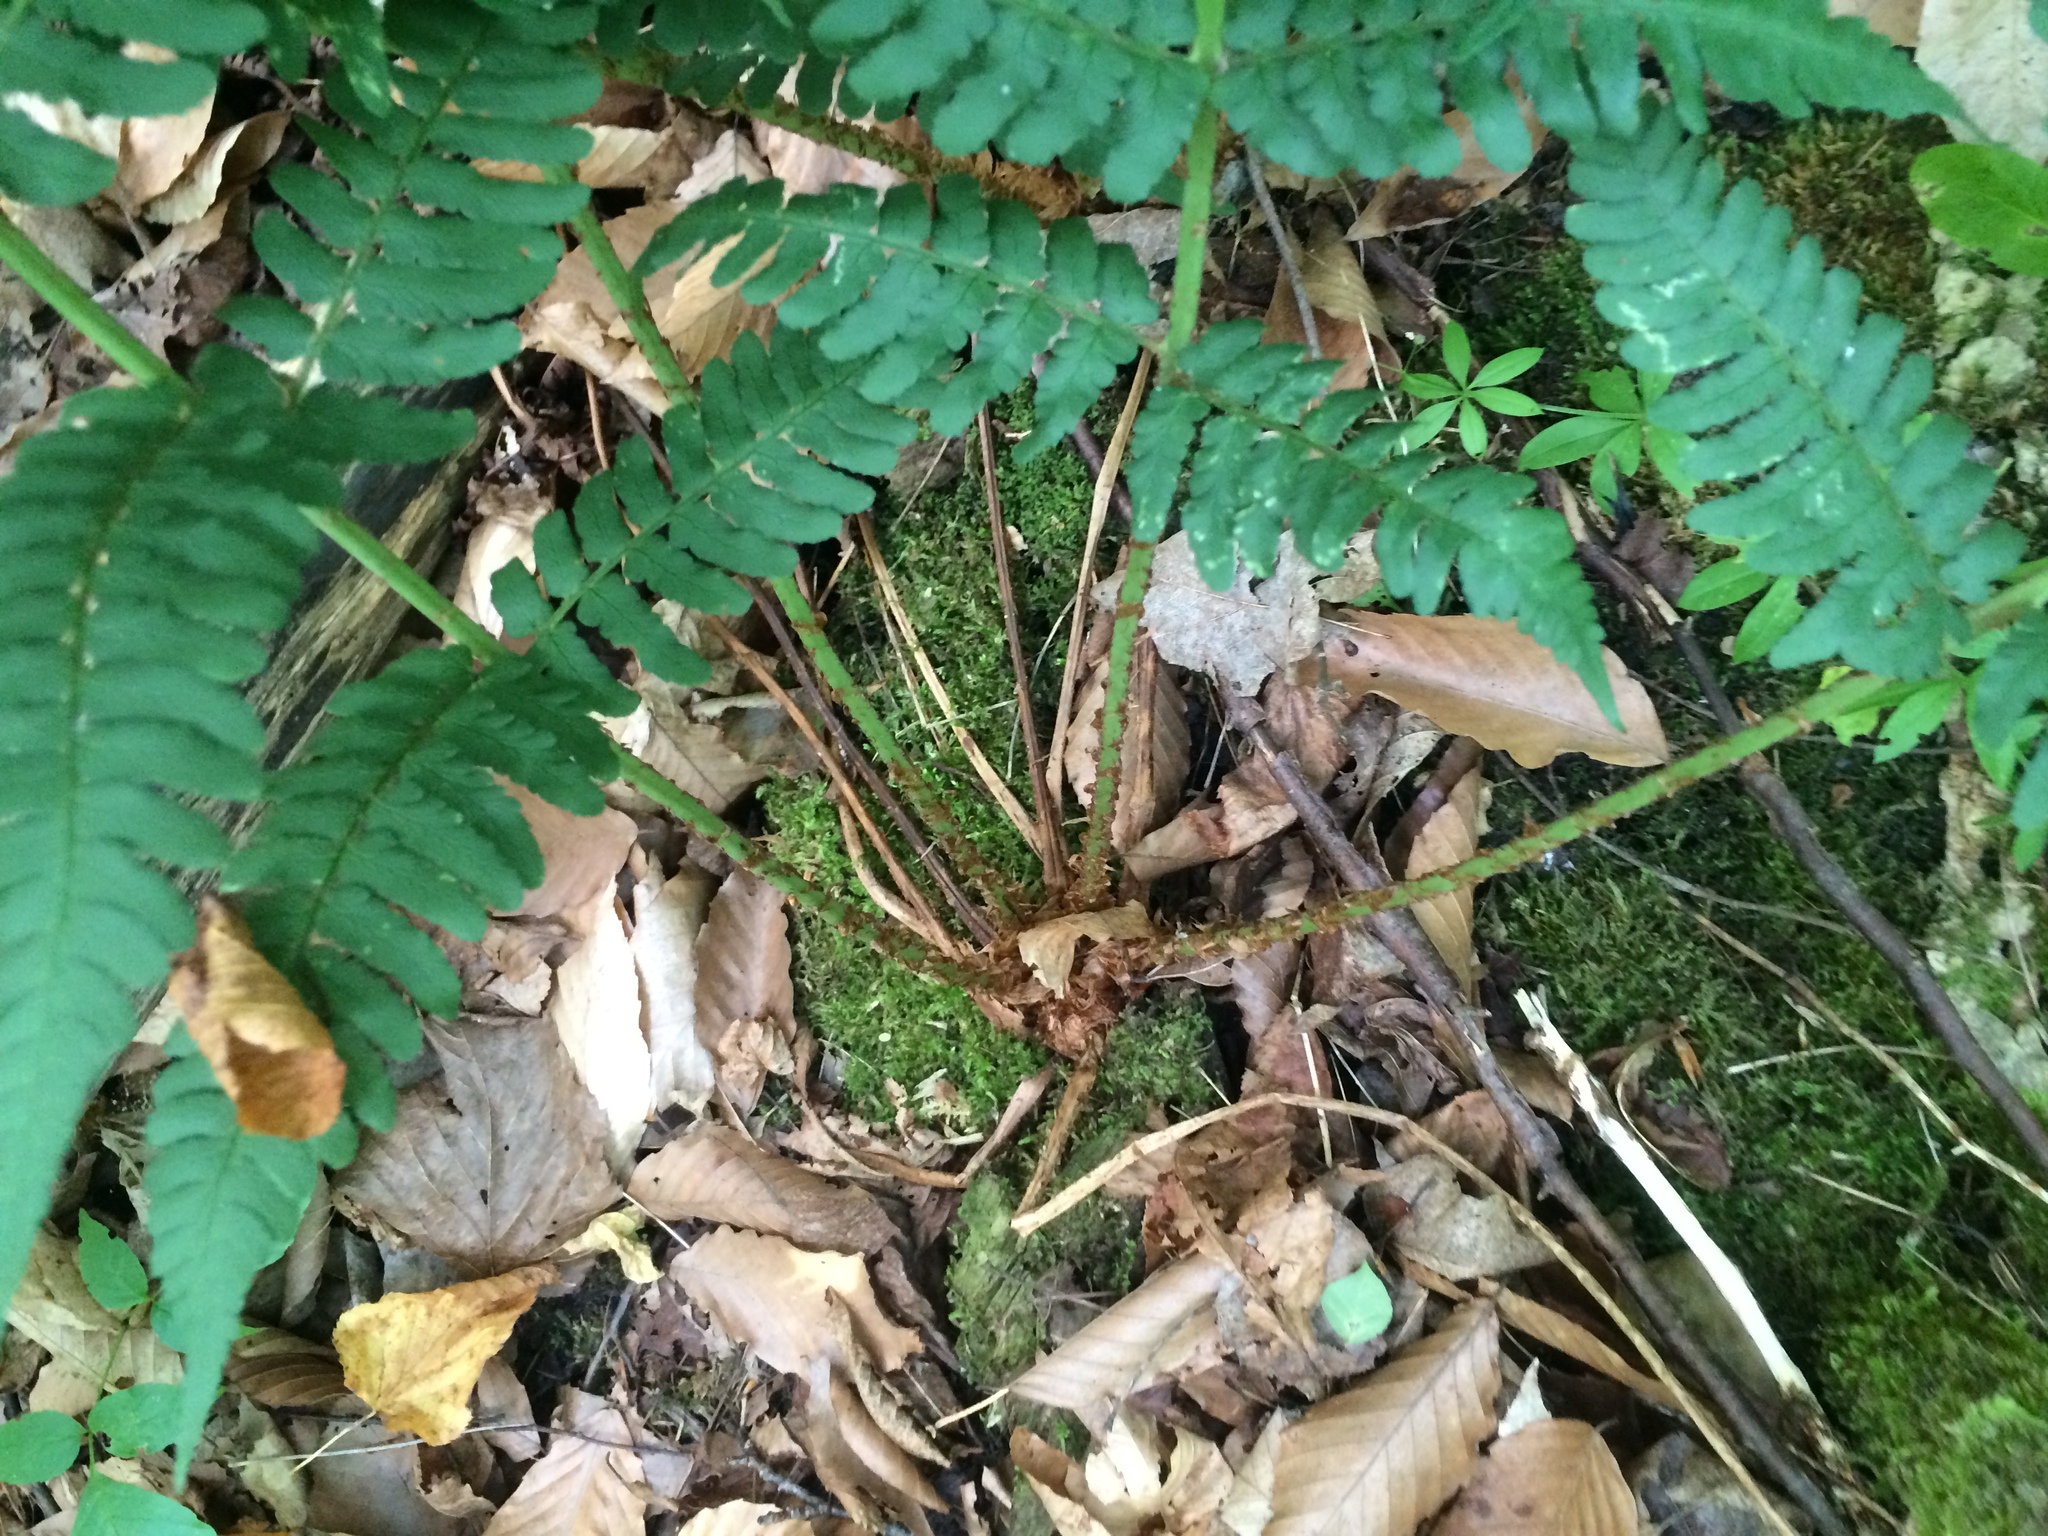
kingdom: Plantae
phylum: Tracheophyta
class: Polypodiopsida
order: Polypodiales
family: Dryopteridaceae
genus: Dryopteris
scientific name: Dryopteris marginalis
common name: Marginal wood fern
